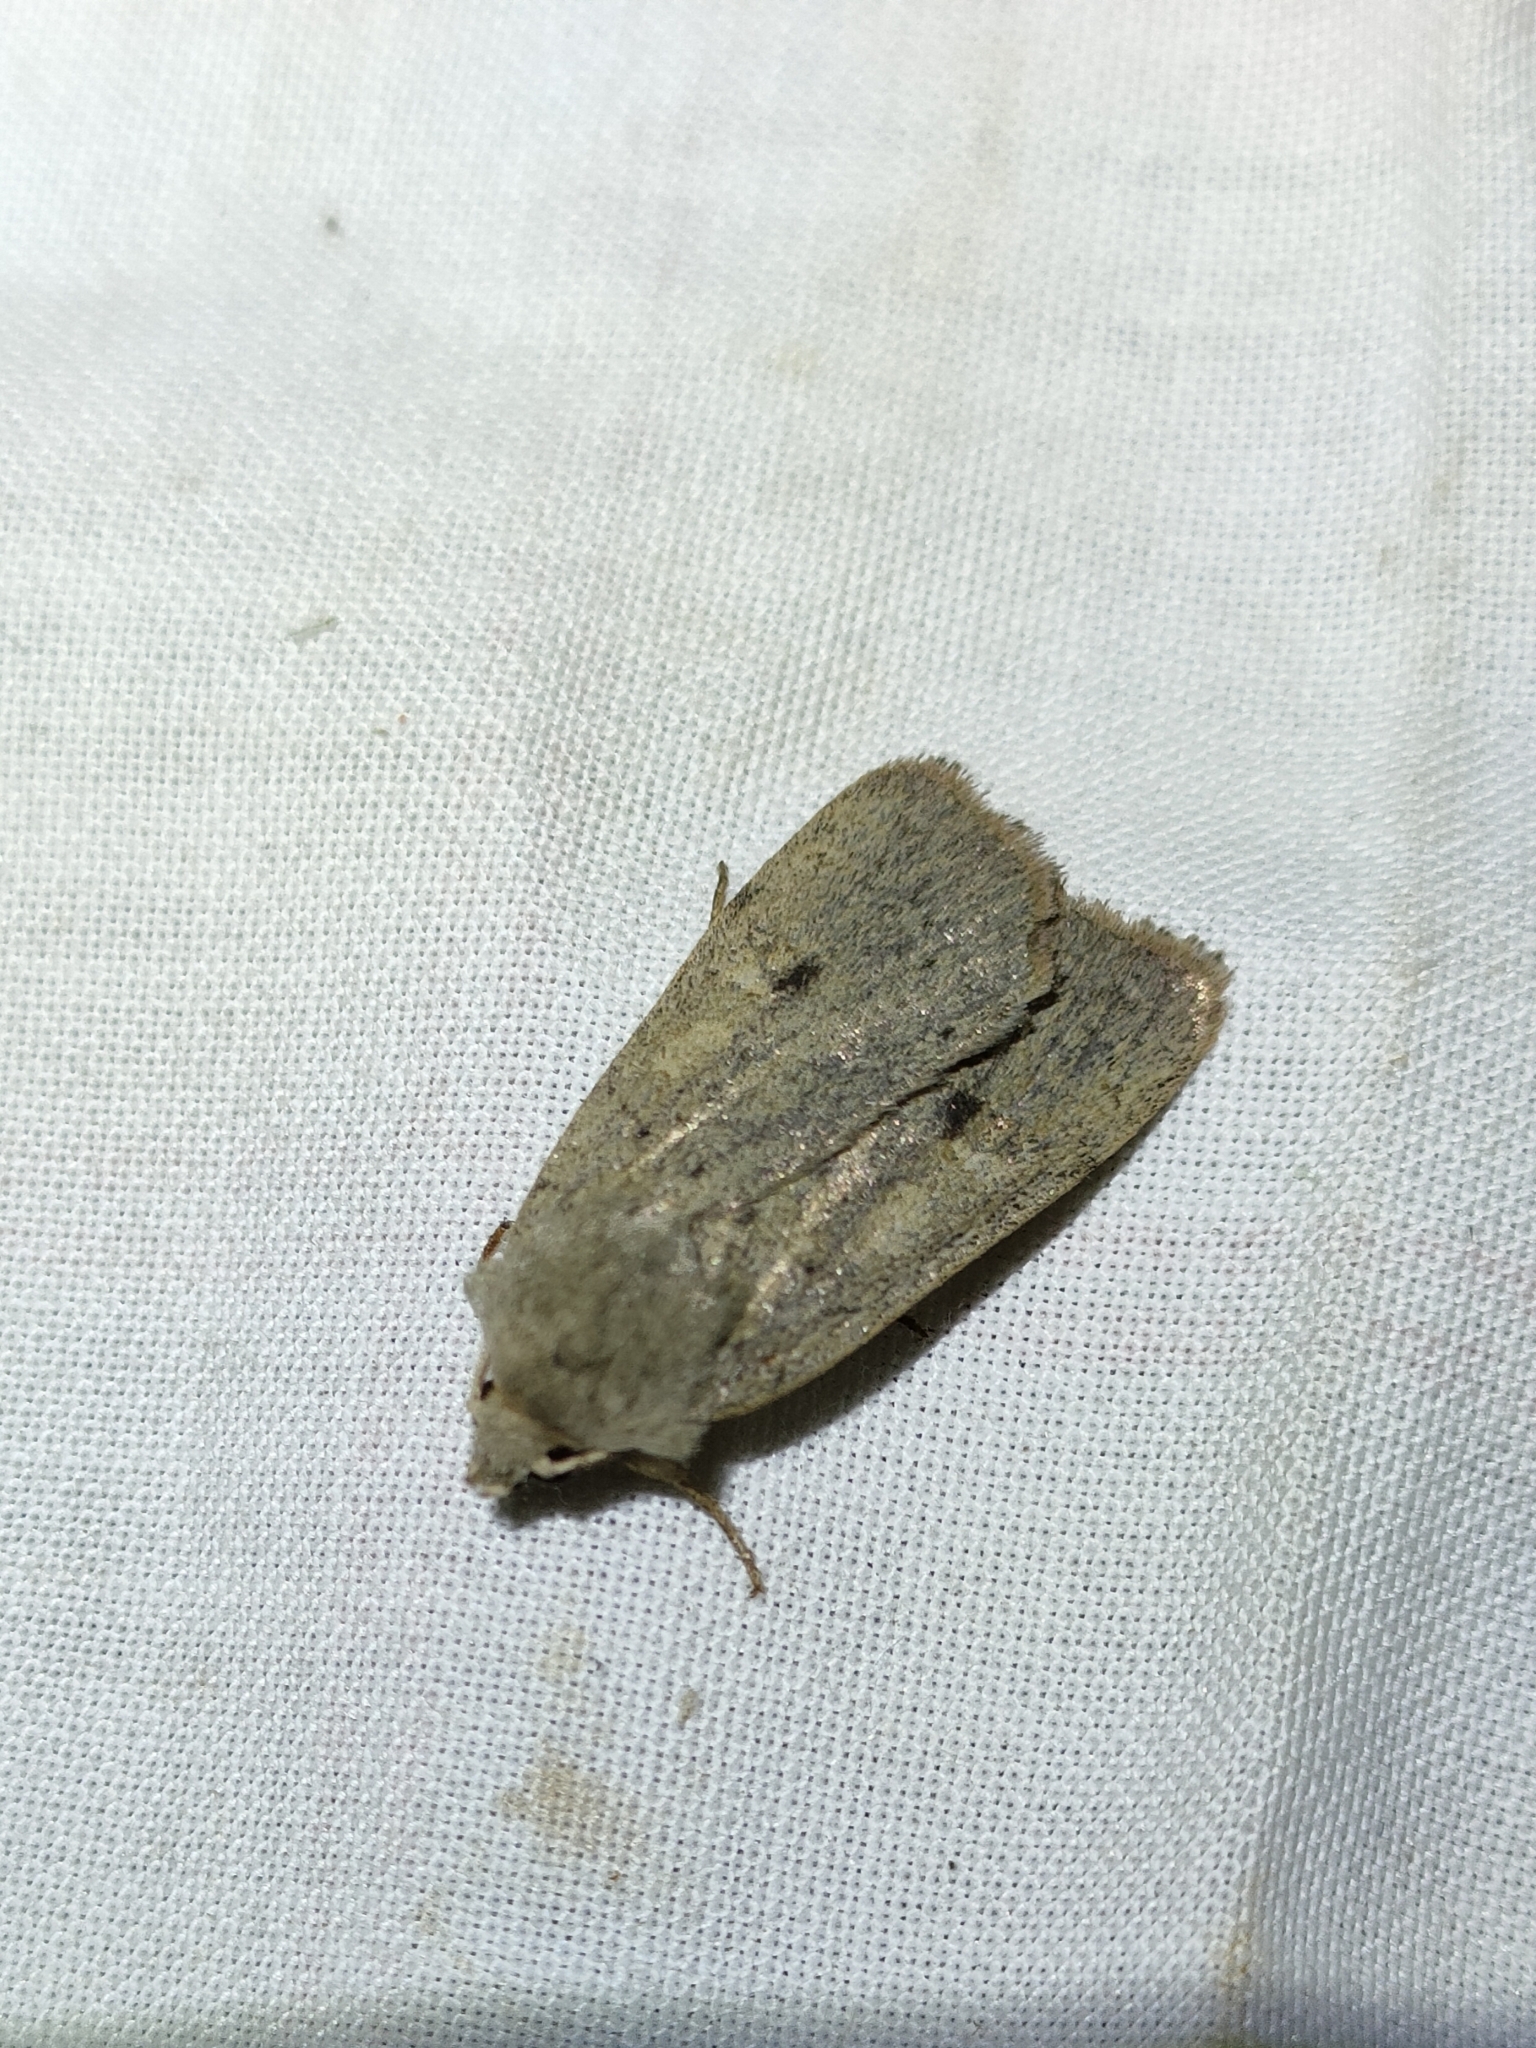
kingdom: Animalia
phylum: Arthropoda
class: Insecta
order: Lepidoptera
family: Noctuidae
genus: Xestia
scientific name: Xestia castanea
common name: Neglected rustic
